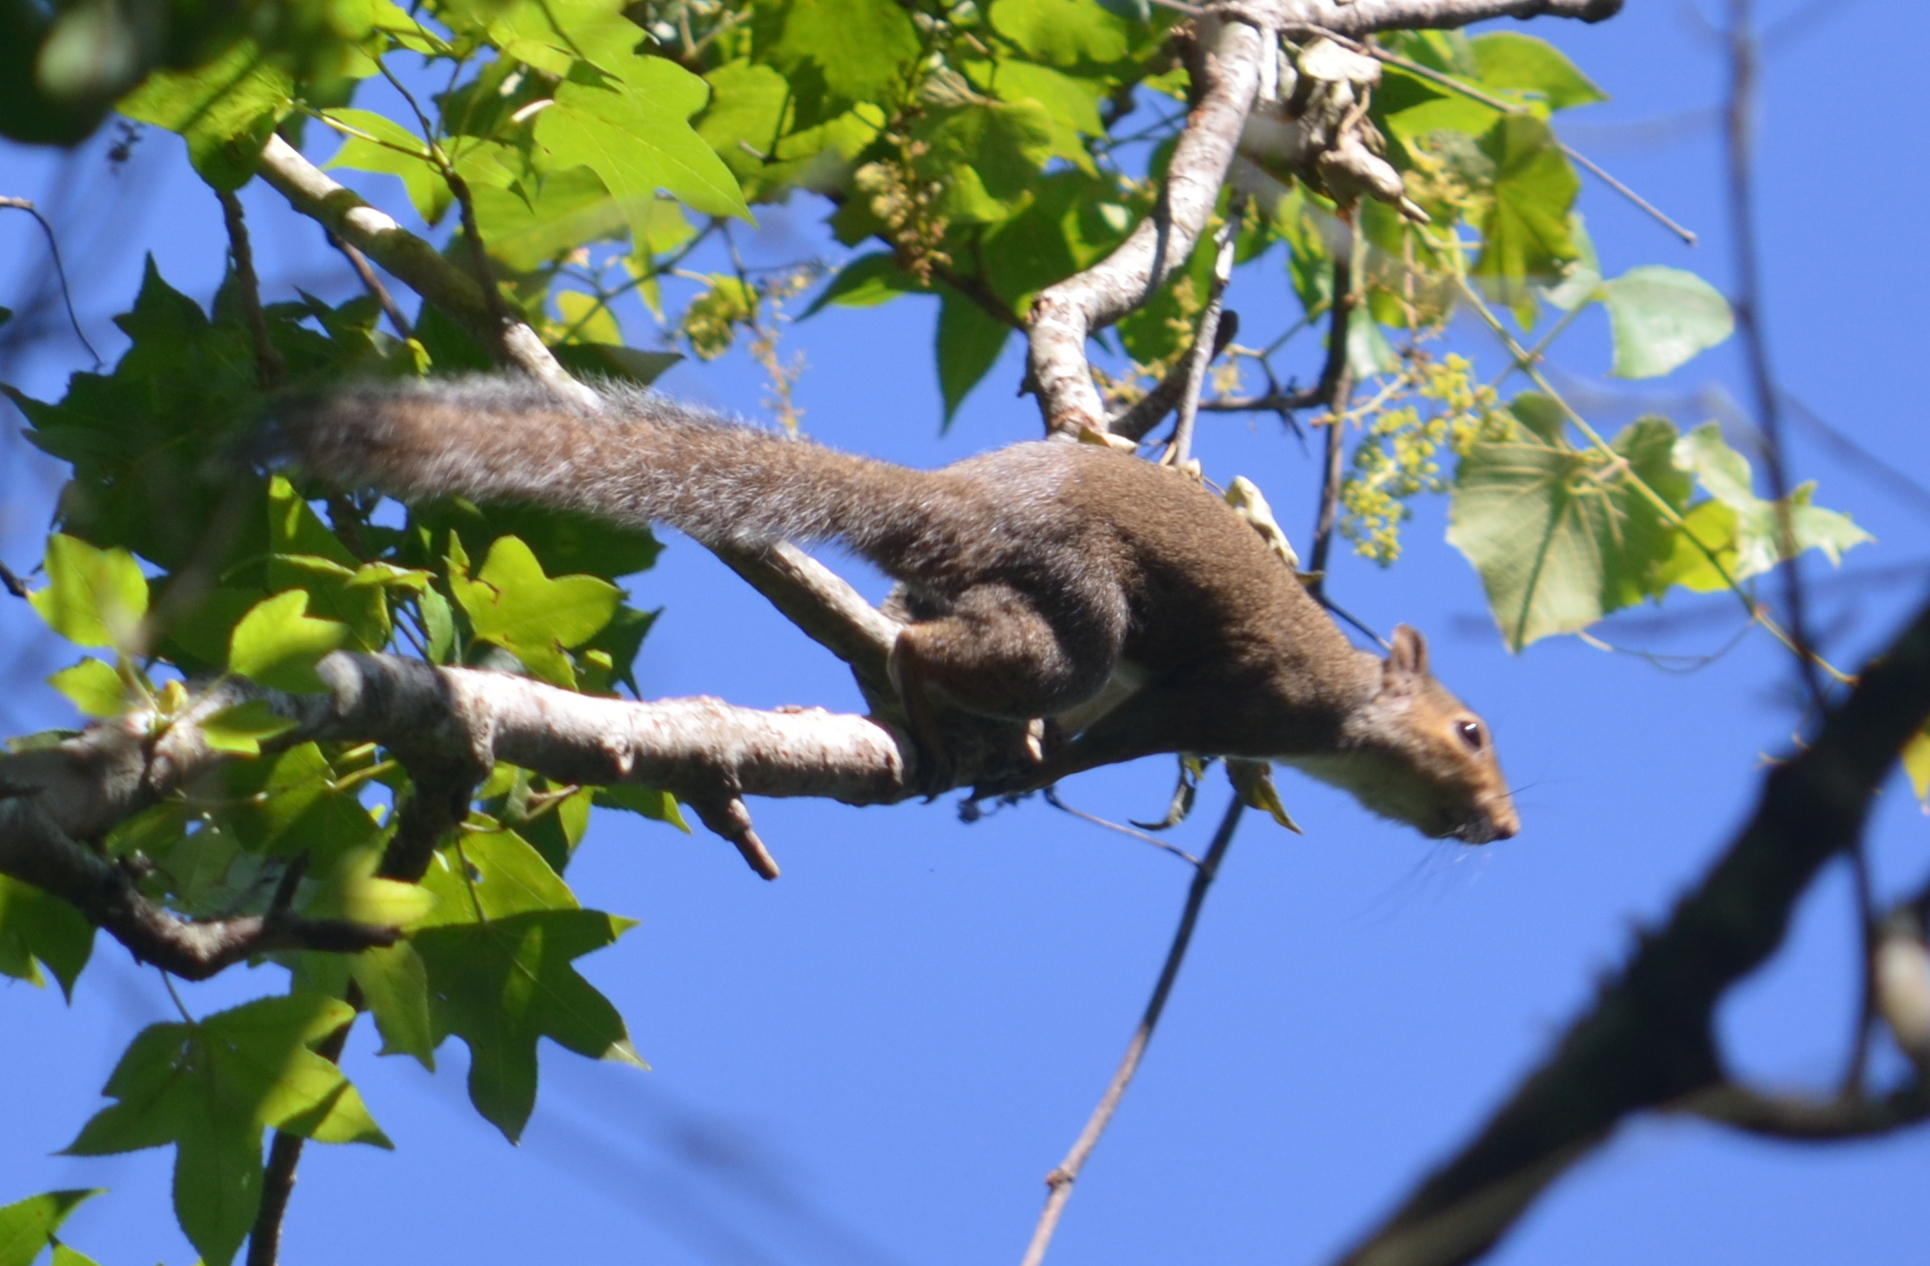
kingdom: Animalia
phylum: Chordata
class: Mammalia
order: Rodentia
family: Sciuridae
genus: Sciurus
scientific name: Sciurus carolinensis
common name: Eastern gray squirrel
